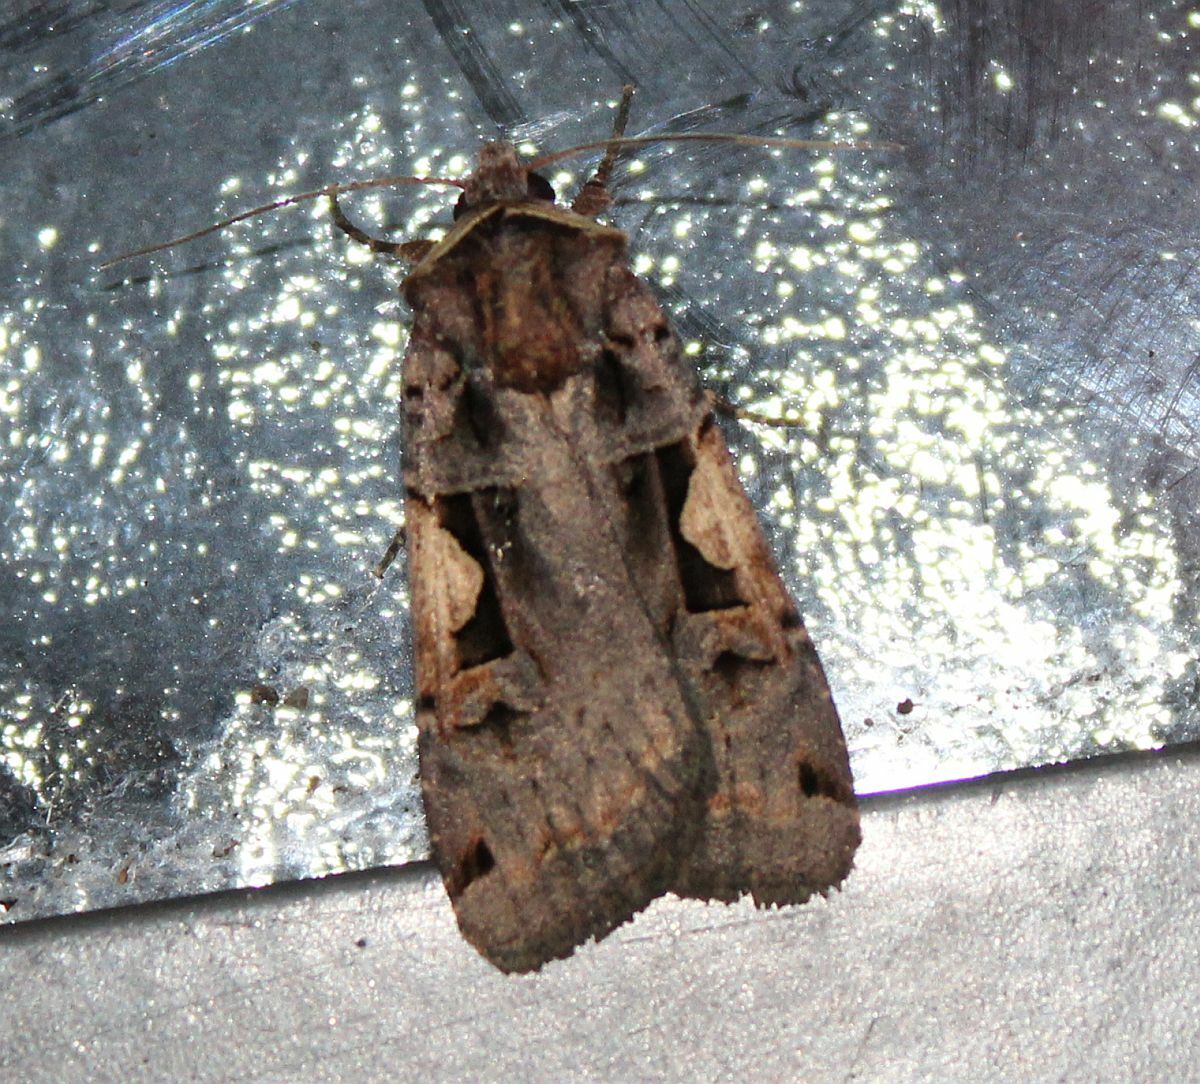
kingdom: Animalia
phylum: Arthropoda
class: Insecta
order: Lepidoptera
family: Noctuidae
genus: Xestia
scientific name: Xestia c-nigrum
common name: Setaceous hebrew character
